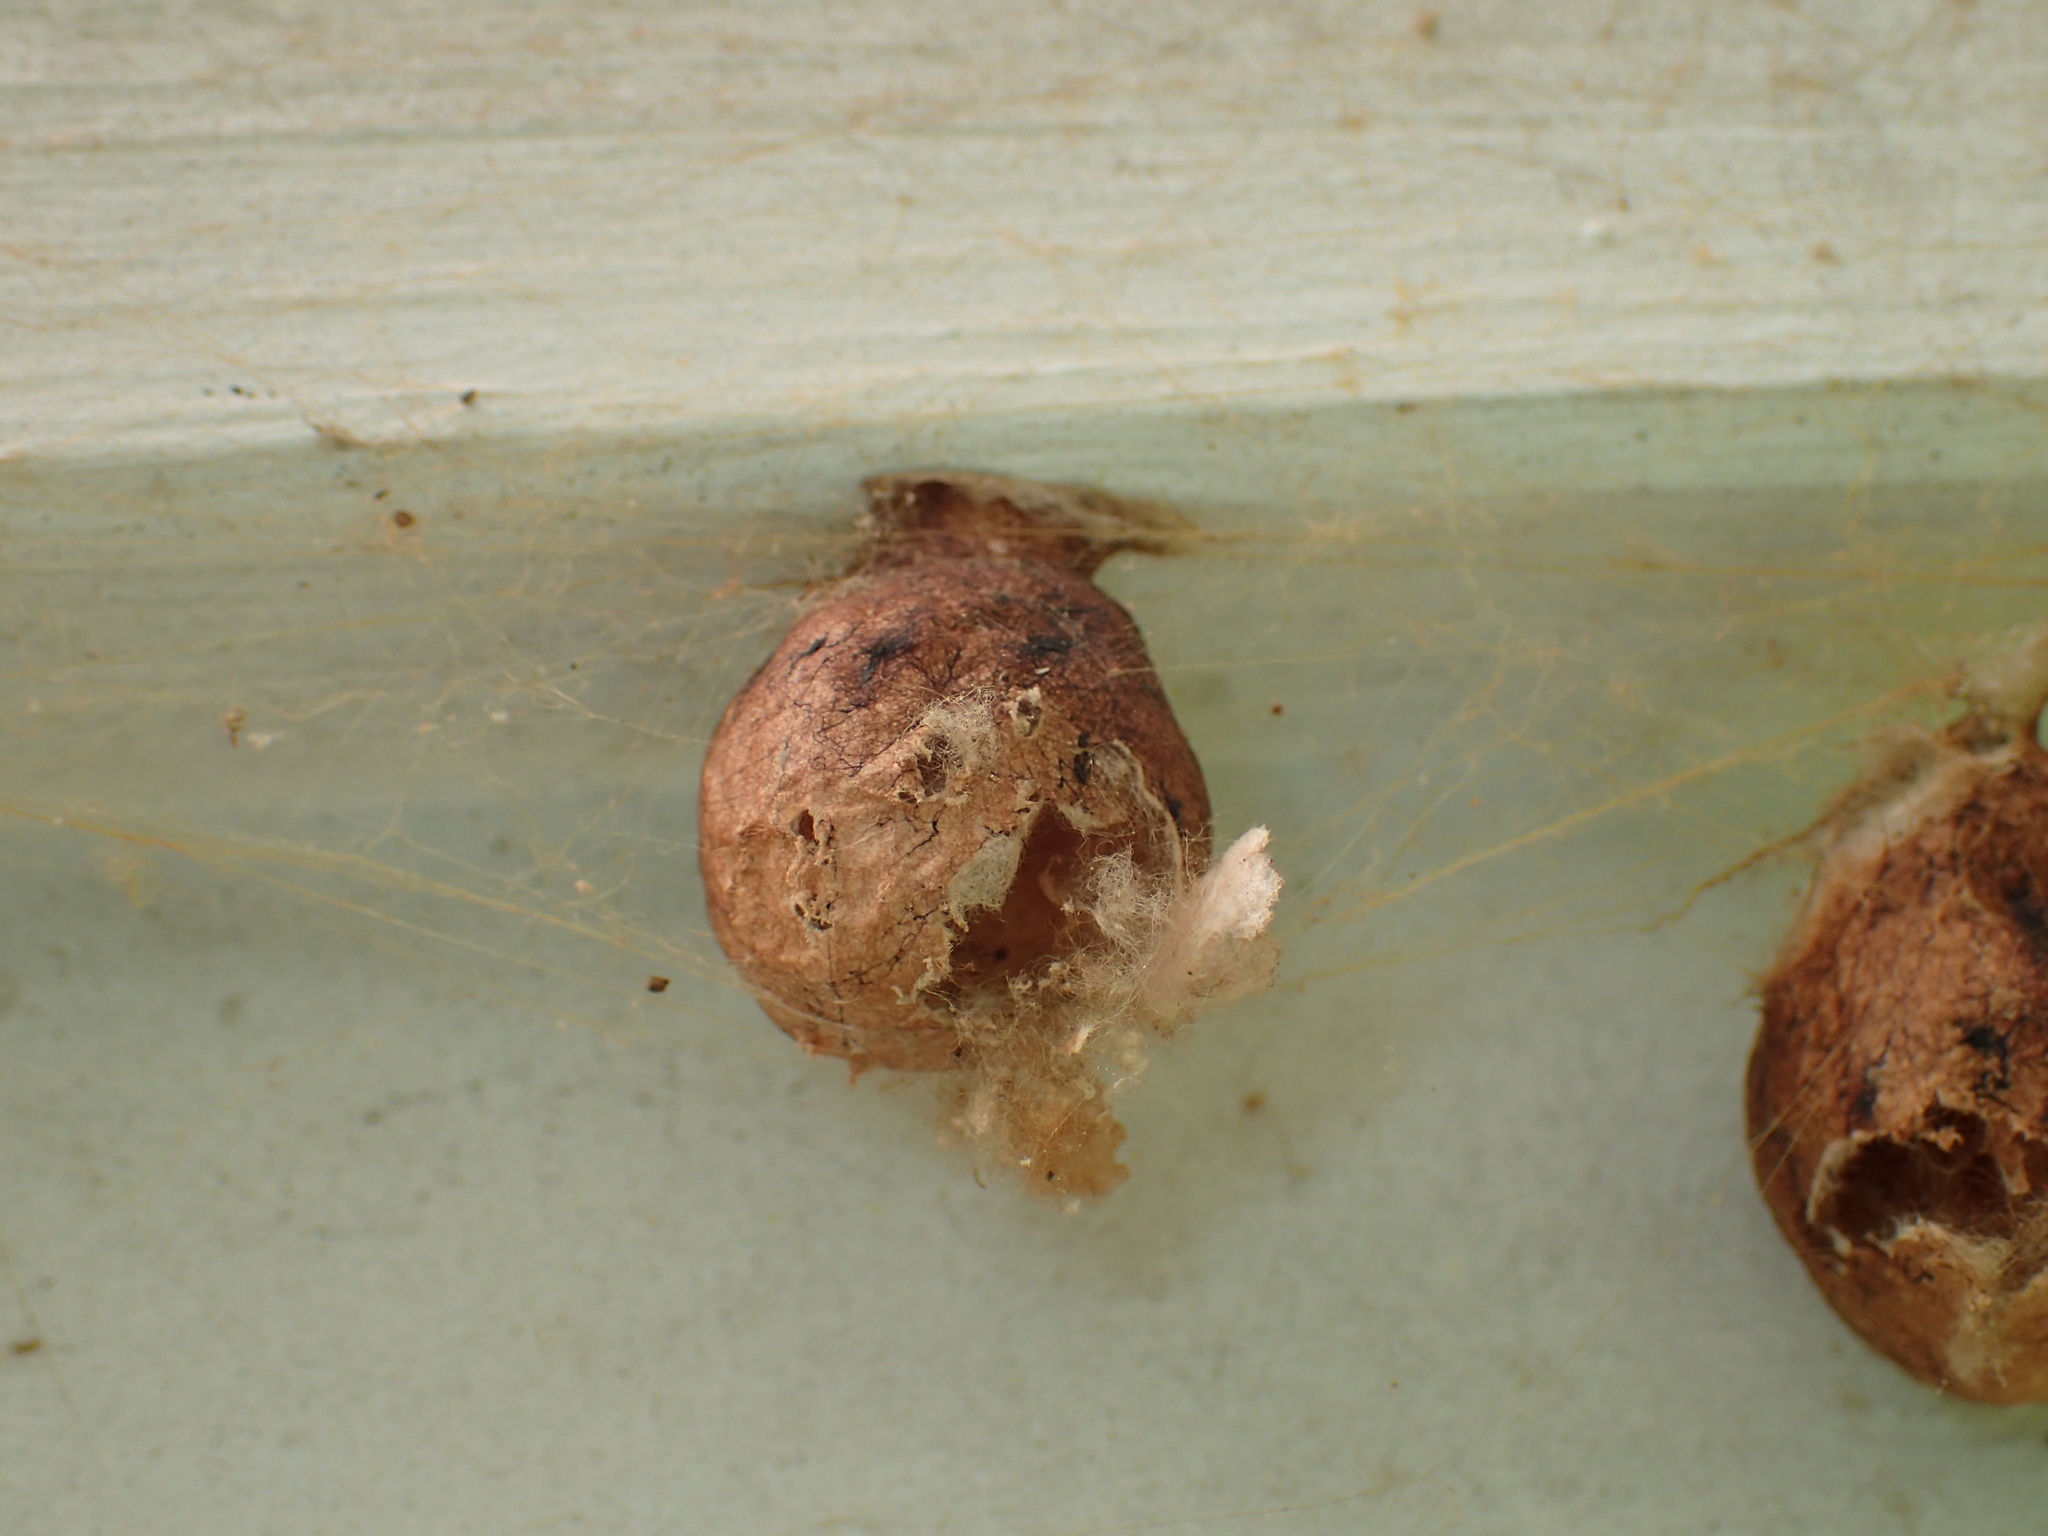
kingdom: Animalia
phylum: Arthropoda
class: Arachnida
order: Araneae
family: Araneidae
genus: Argiope
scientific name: Argiope aurantia
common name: Orb weavers
